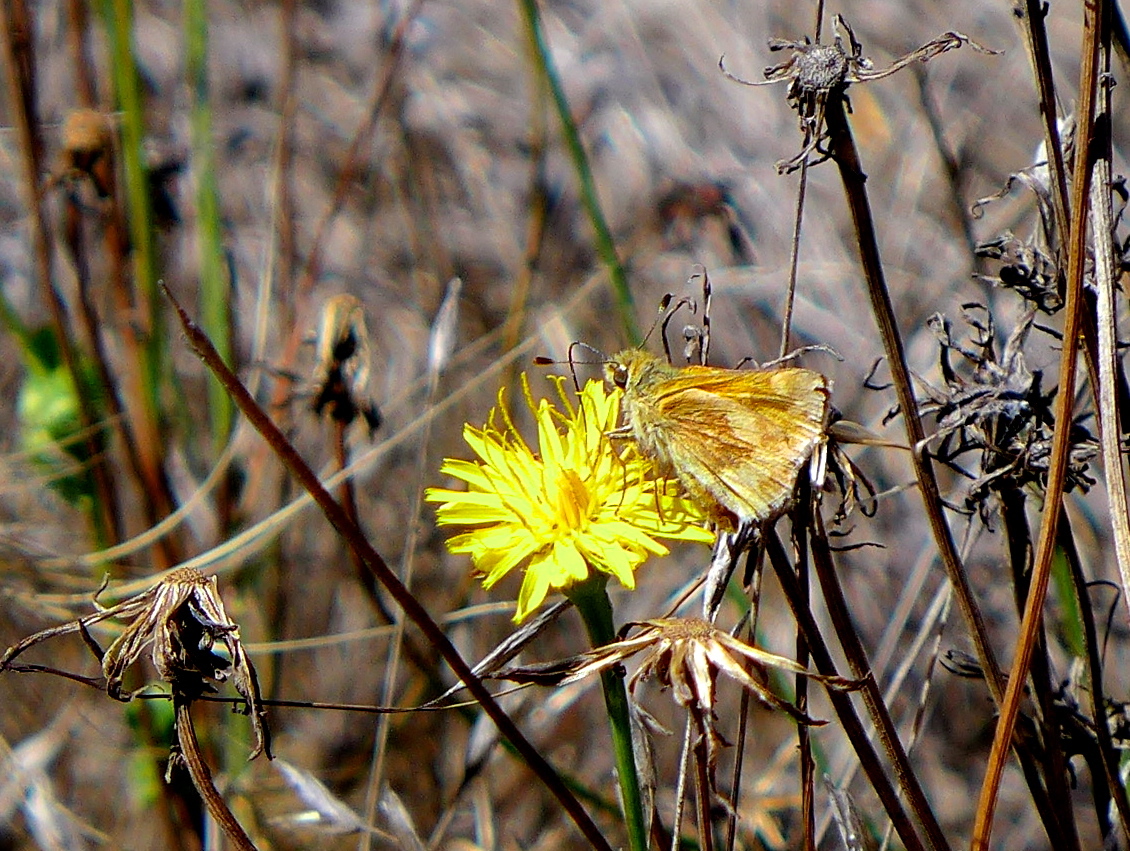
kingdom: Animalia
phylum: Arthropoda
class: Insecta
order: Lepidoptera
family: Hesperiidae
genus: Ochlodes
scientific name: Ochlodes sylvanoides
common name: Woodland skipper
